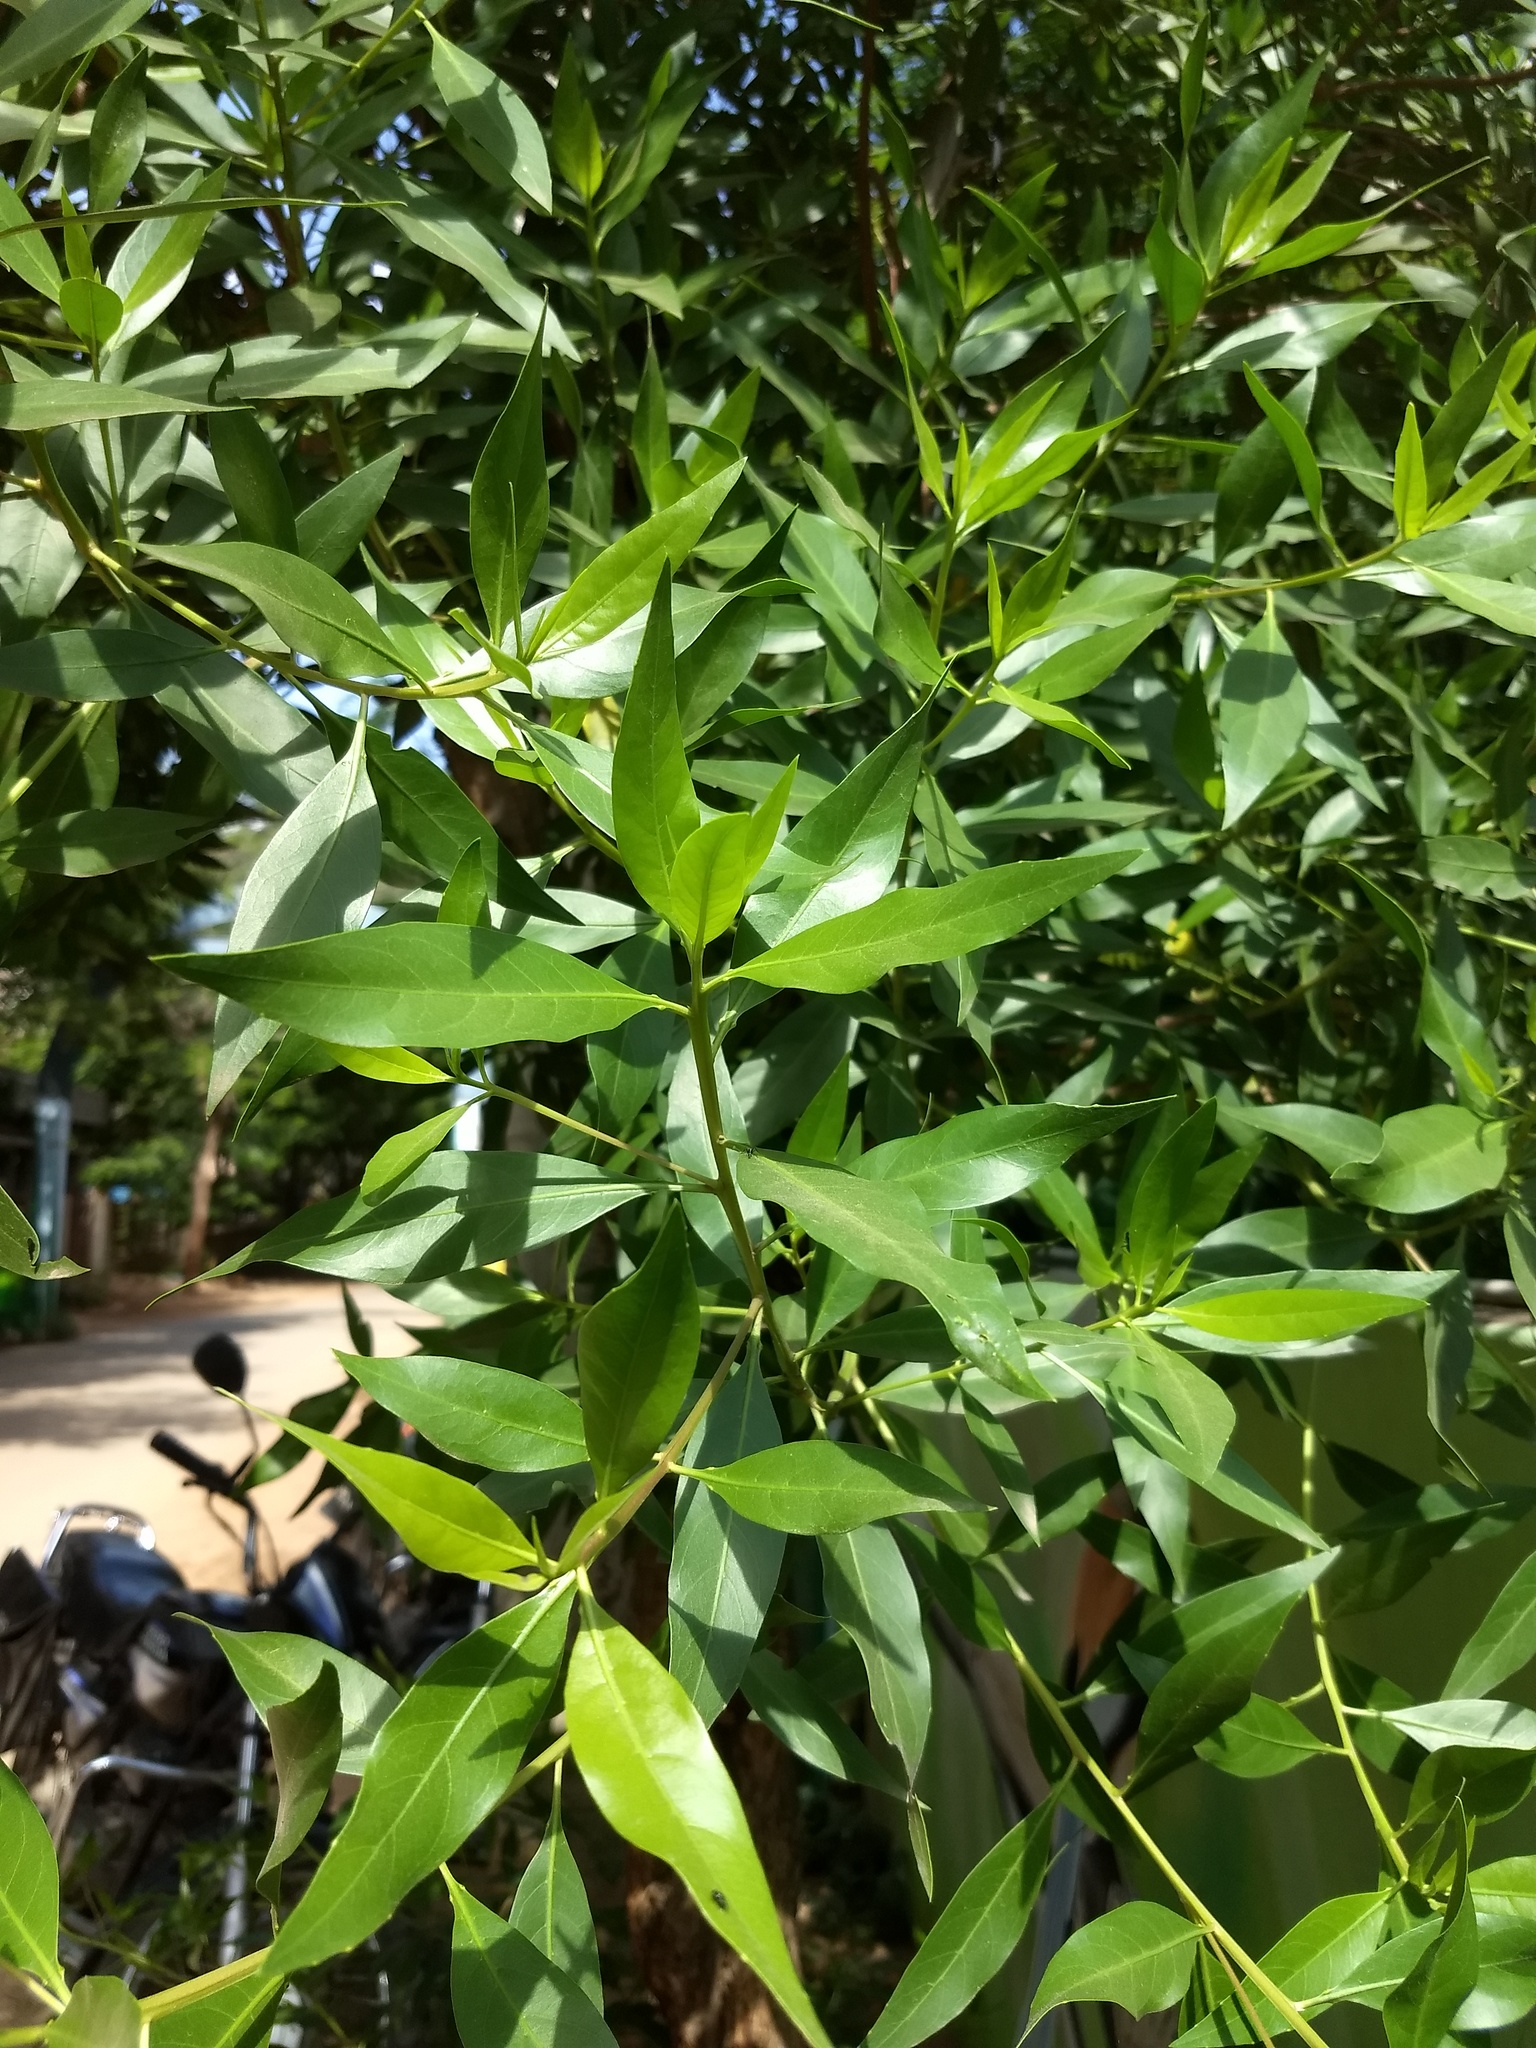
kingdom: Plantae
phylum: Tracheophyta
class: Magnoliopsida
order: Myrtales
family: Combretaceae
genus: Conocarpus
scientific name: Conocarpus erectus
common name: Button mangrove
